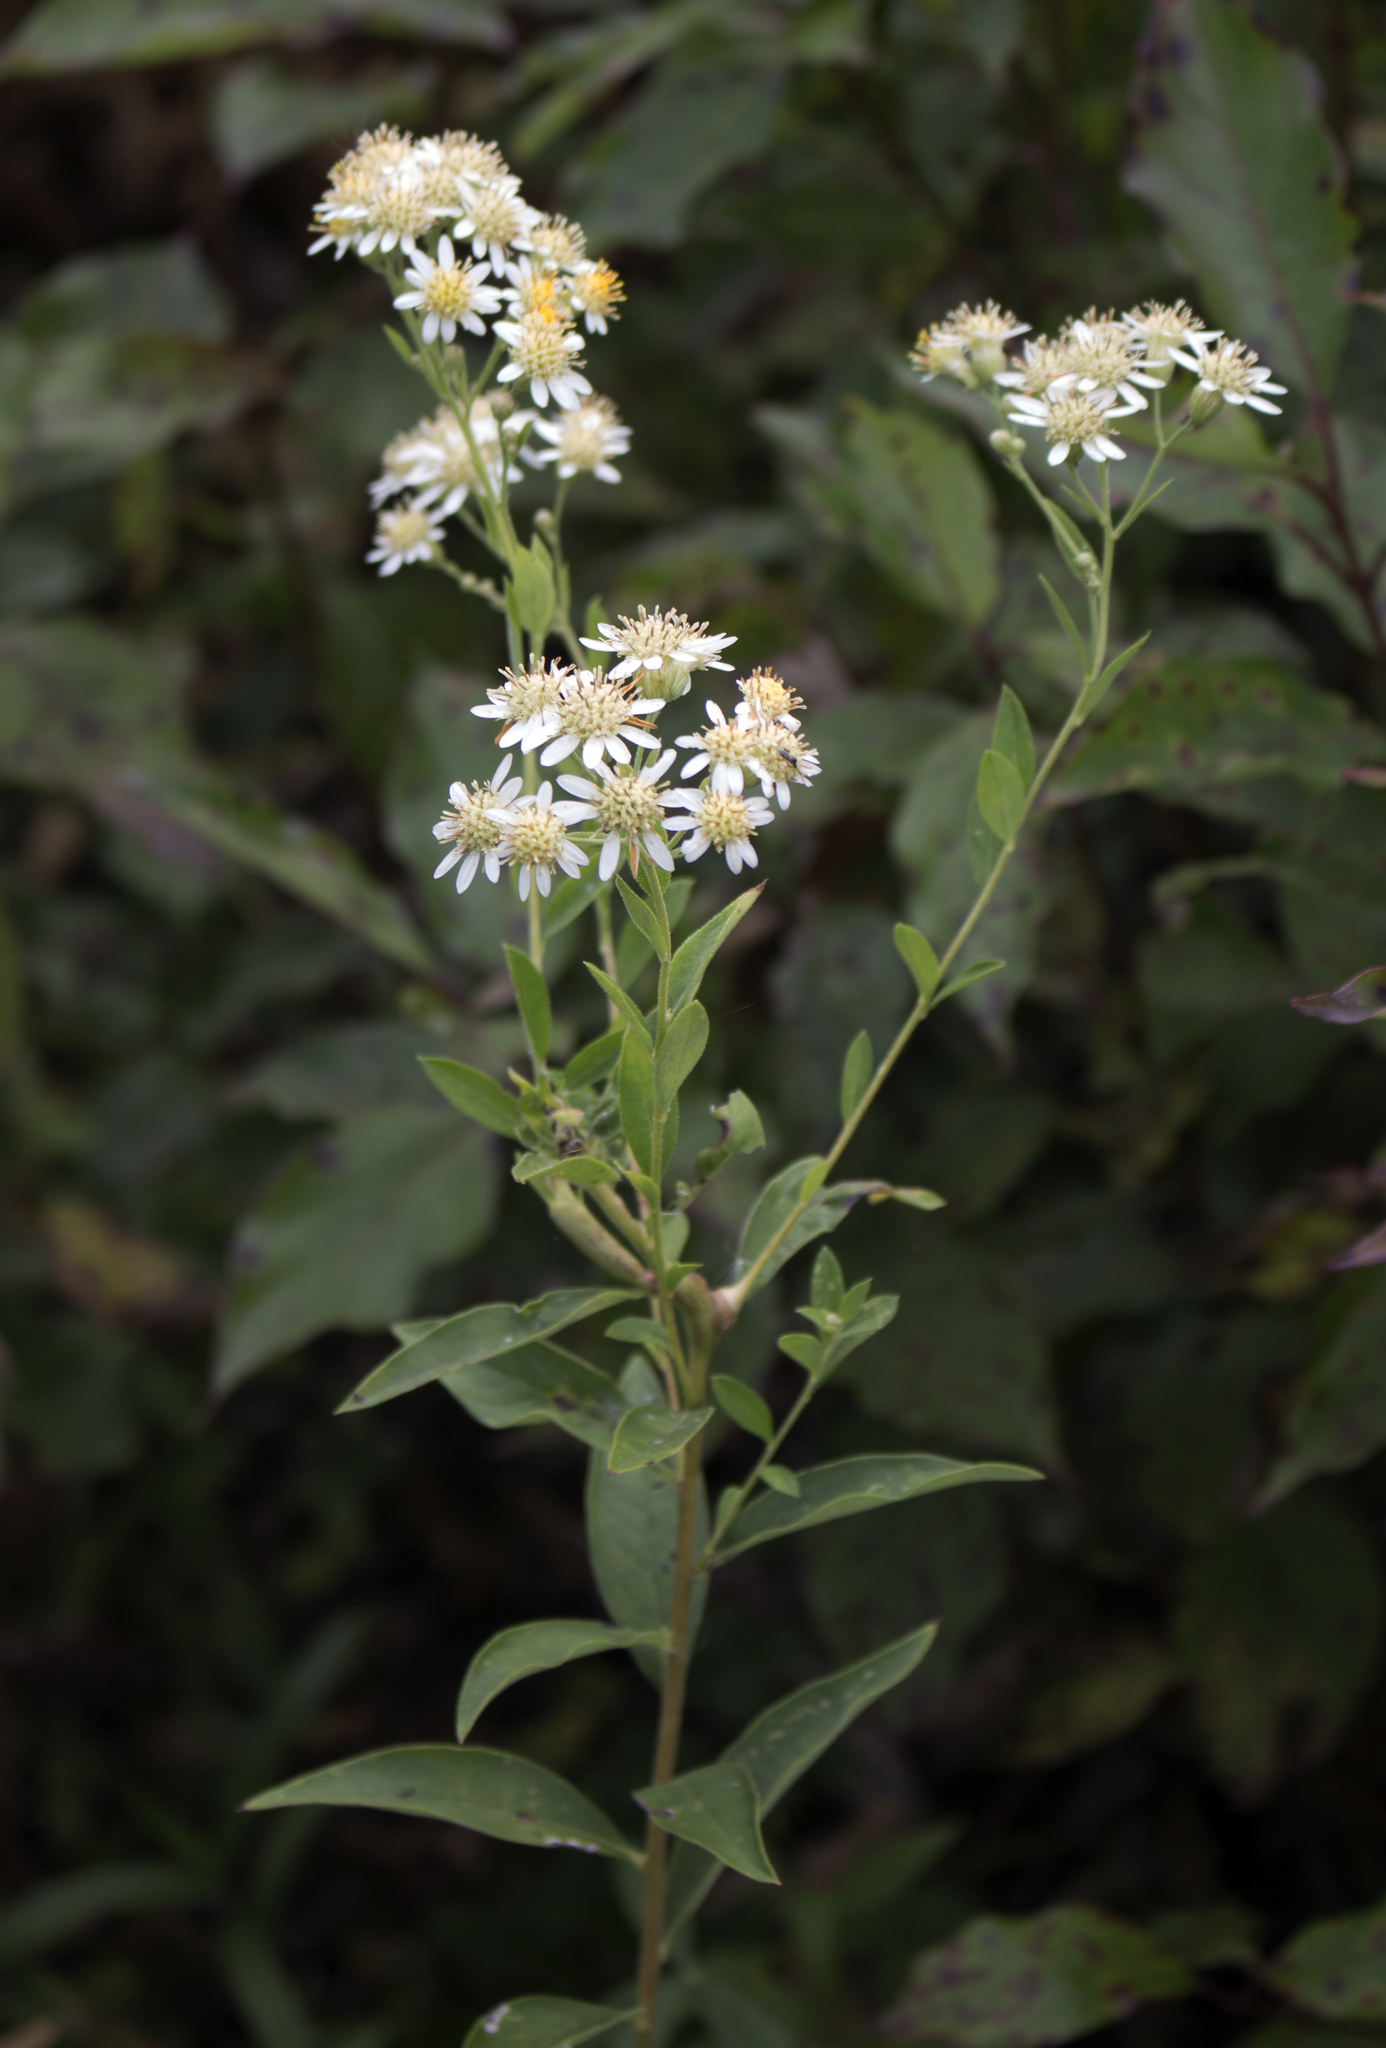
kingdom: Plantae
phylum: Tracheophyta
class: Magnoliopsida
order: Asterales
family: Asteraceae
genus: Doellingeria
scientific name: Doellingeria umbellata
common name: Flat-top white aster
